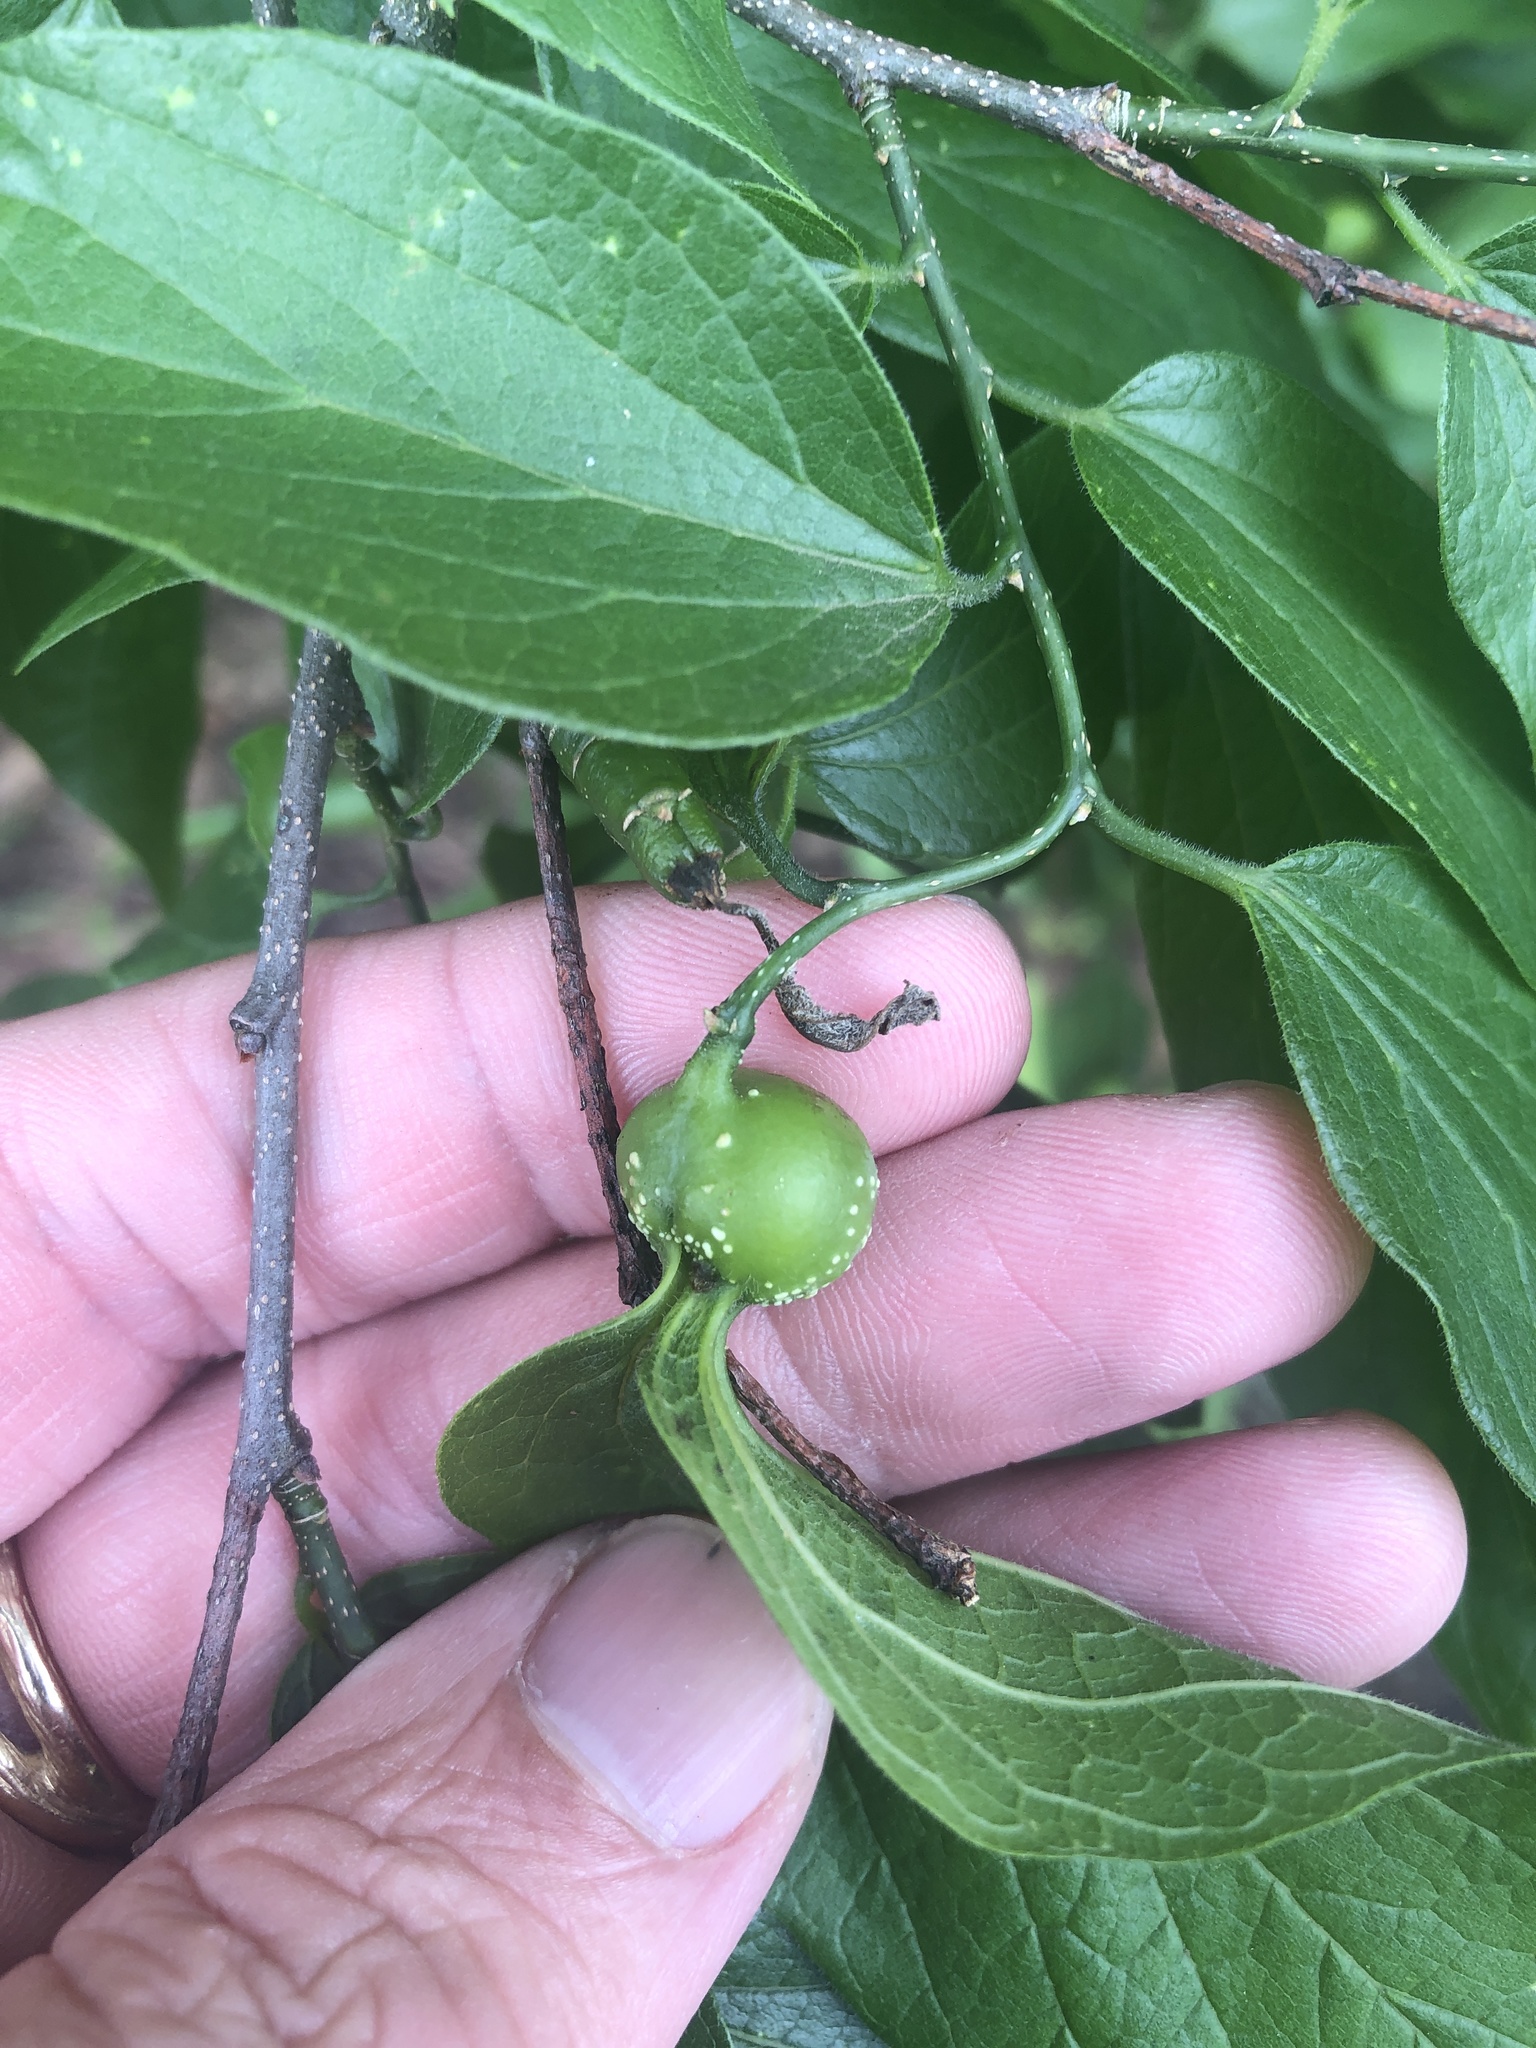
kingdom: Animalia
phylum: Arthropoda
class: Insecta
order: Hemiptera
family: Aphalaridae
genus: Pachypsylla
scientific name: Pachypsylla venusta
